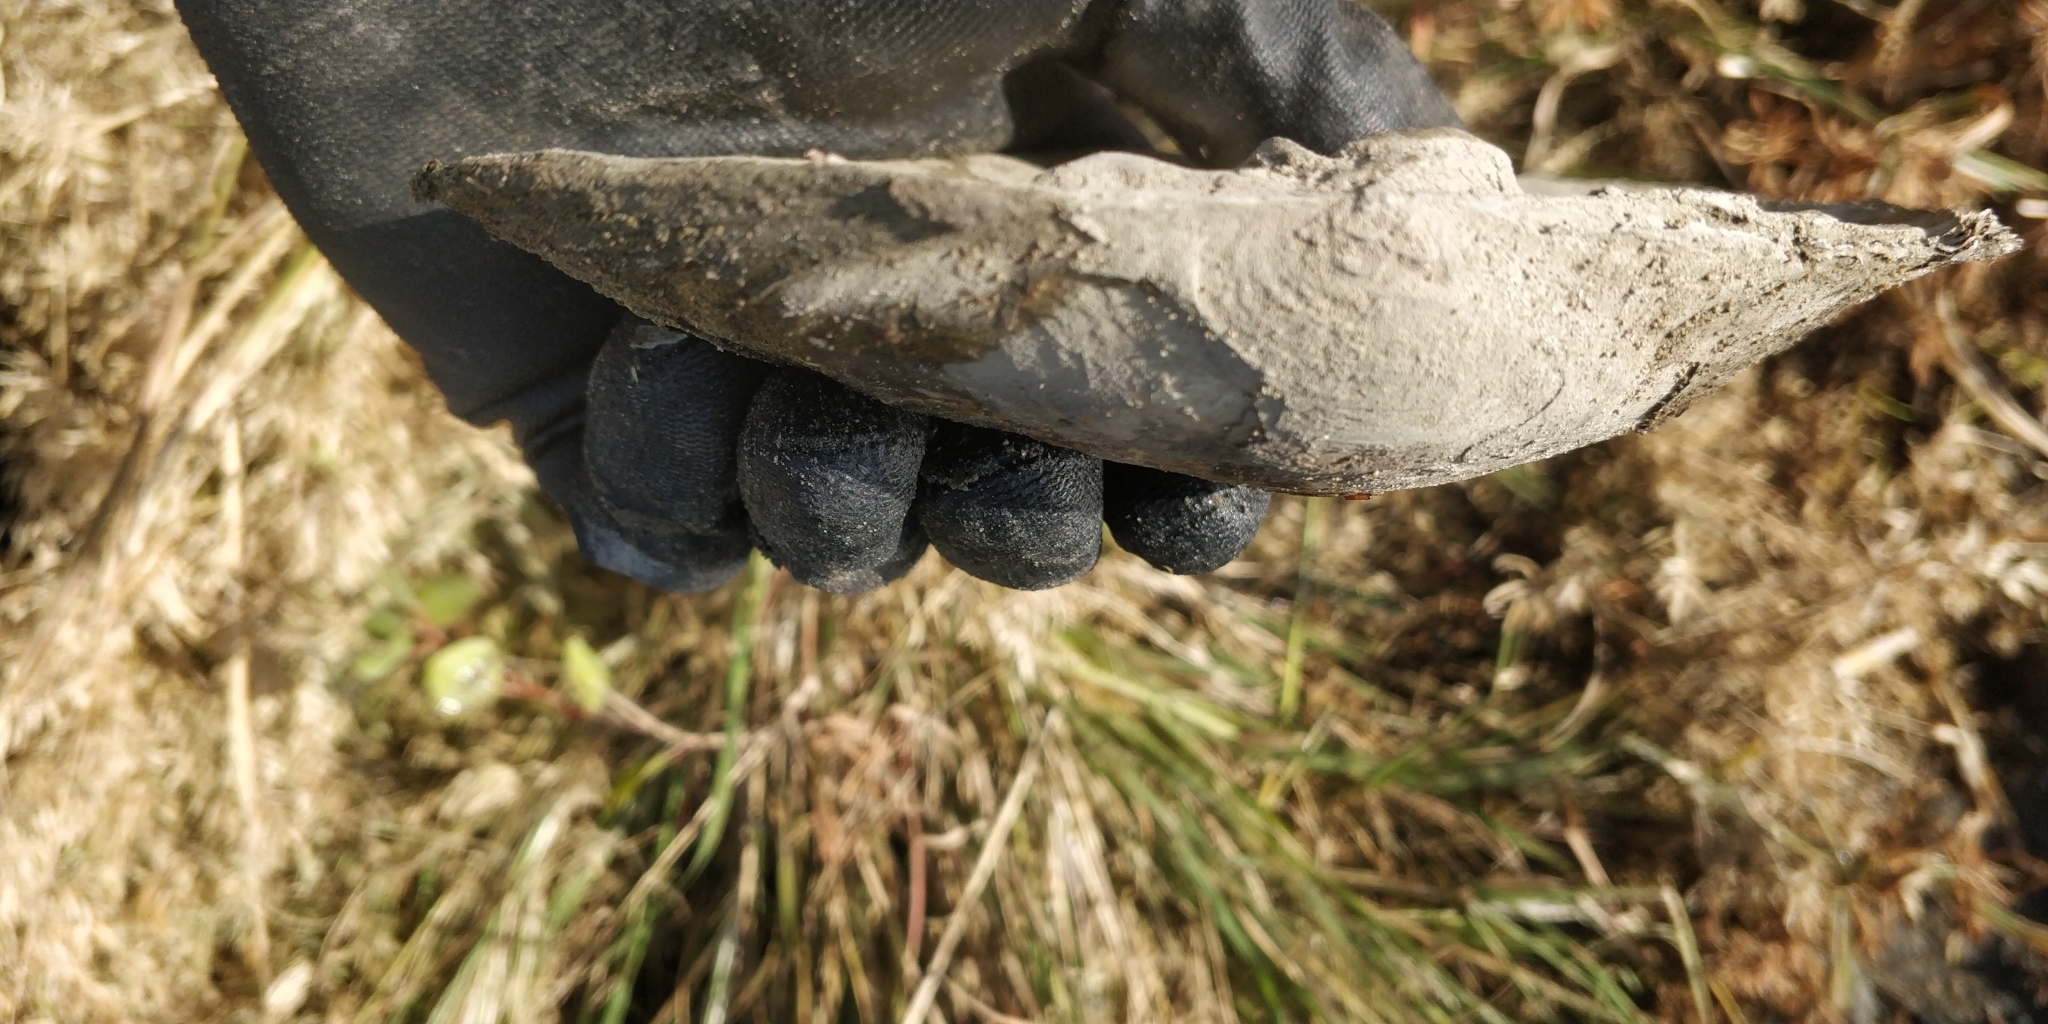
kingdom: Animalia
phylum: Mollusca
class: Bivalvia
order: Unionida
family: Unionidae
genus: Lasmigona
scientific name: Lasmigona complanata
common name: White heelsplitter
